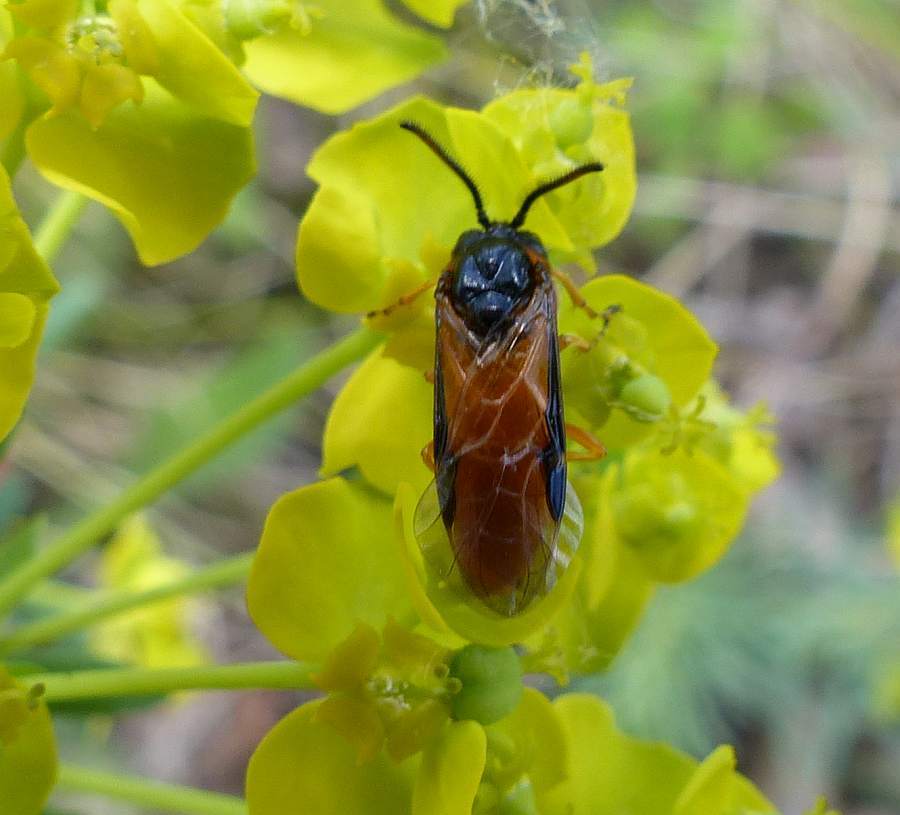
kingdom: Animalia
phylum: Arthropoda
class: Insecta
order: Hymenoptera
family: Argidae
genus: Arge
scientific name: Arge ochropus
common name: Argid sawfly
